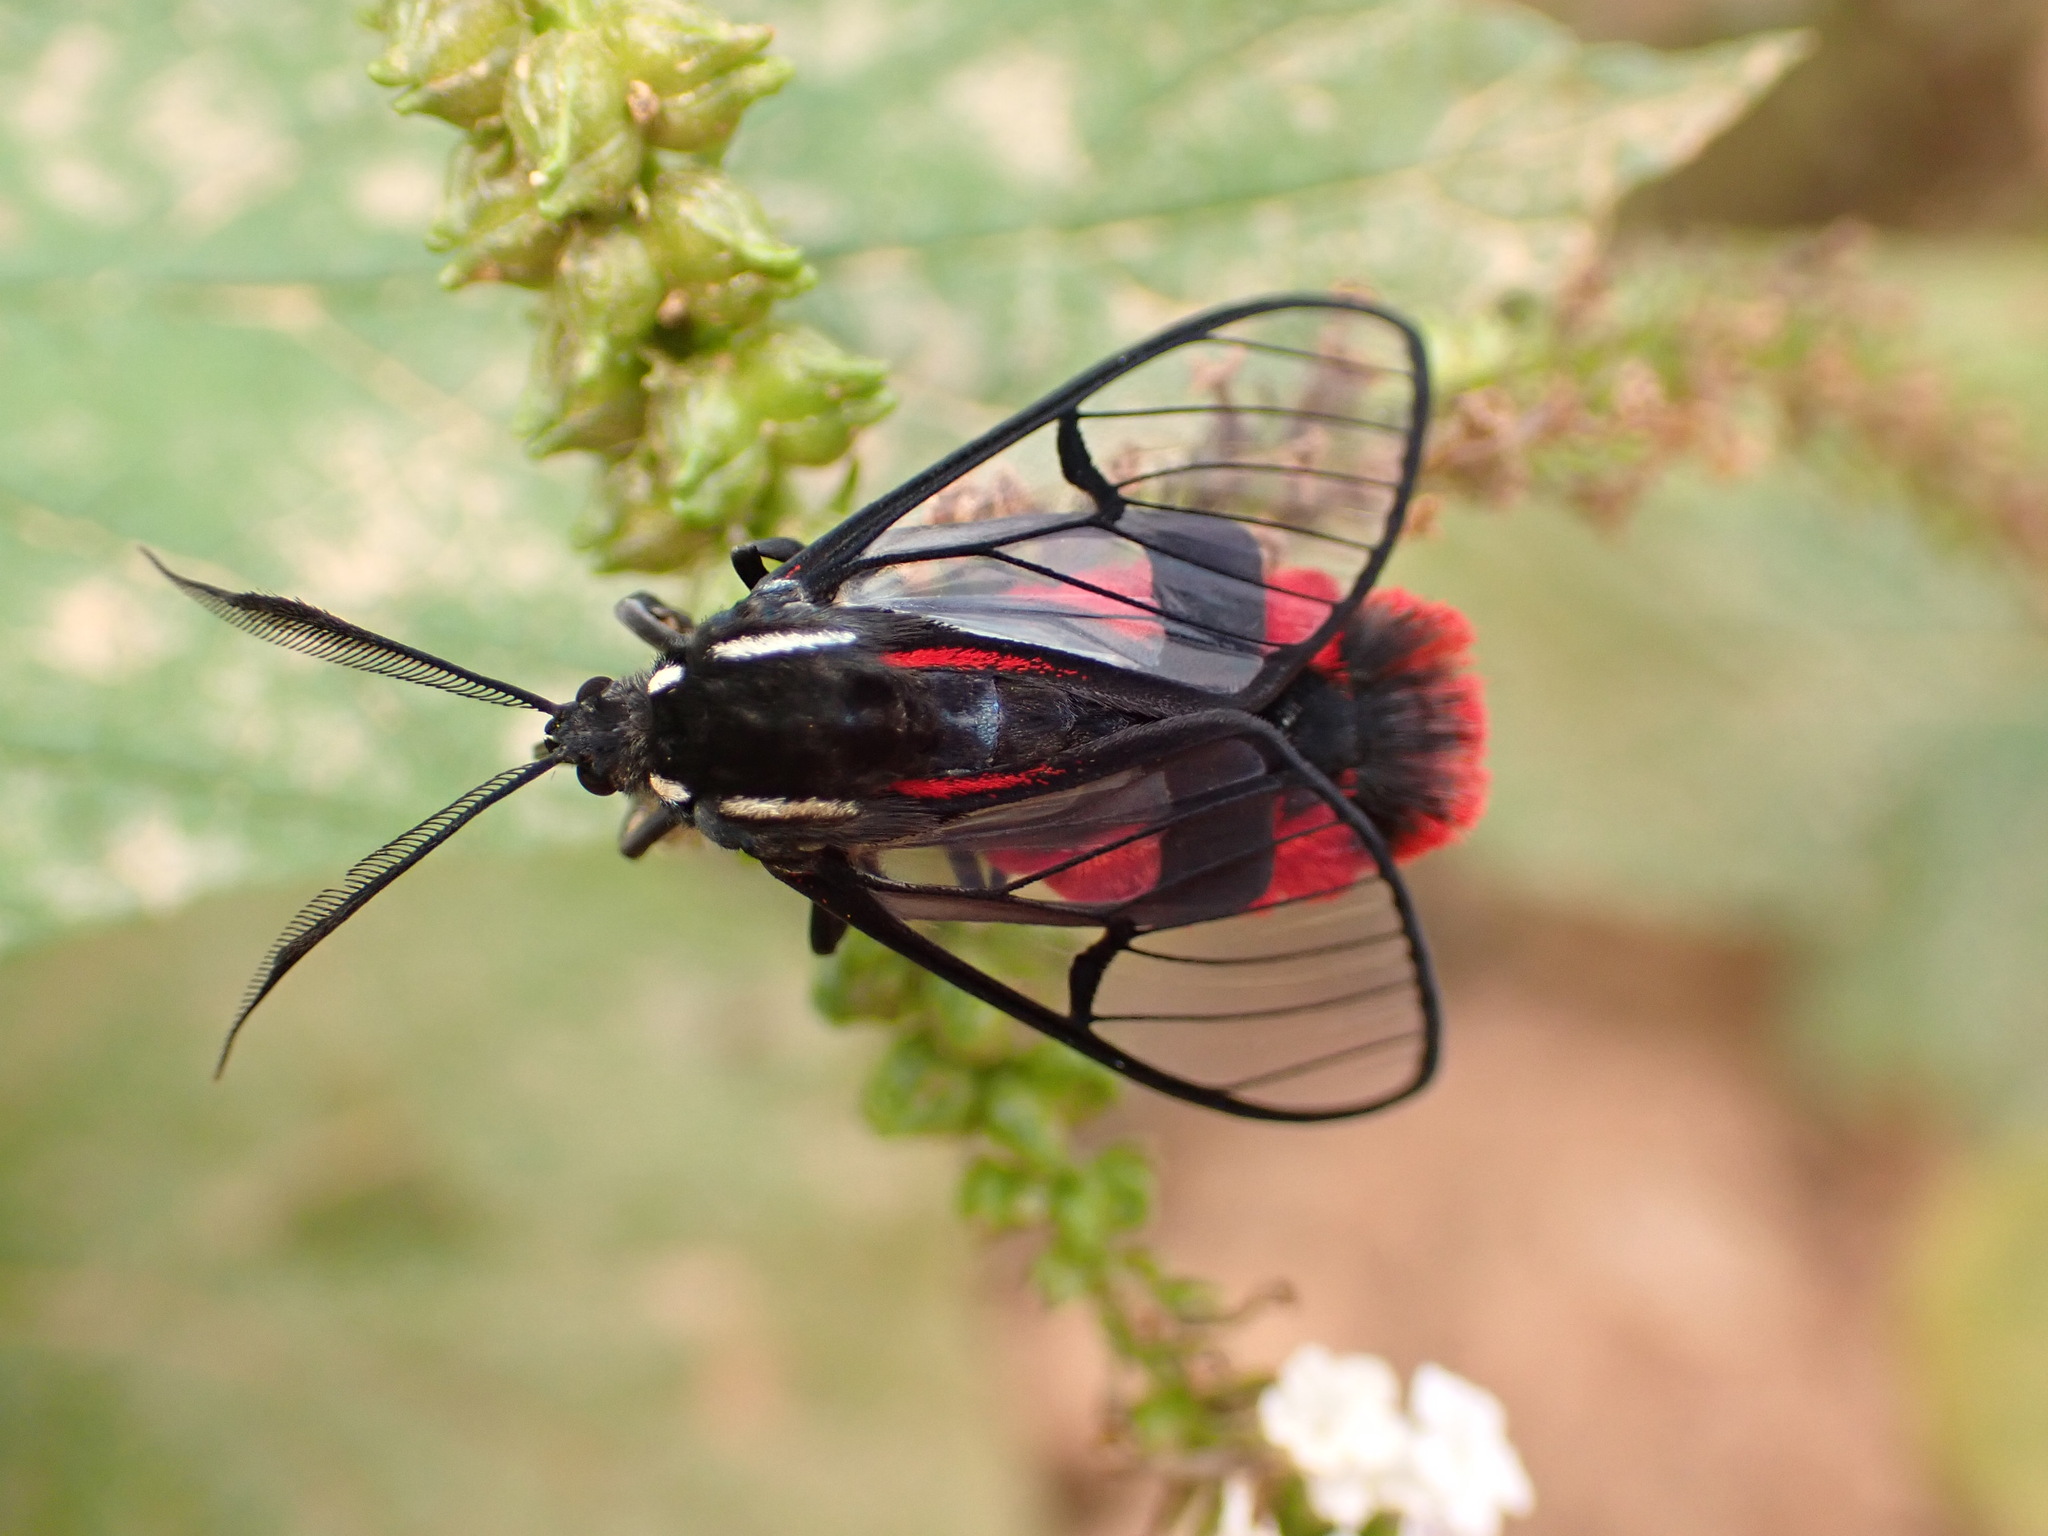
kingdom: Animalia
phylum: Arthropoda
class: Insecta
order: Lepidoptera
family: Erebidae
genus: Dinia
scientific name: Dinia eagrus
